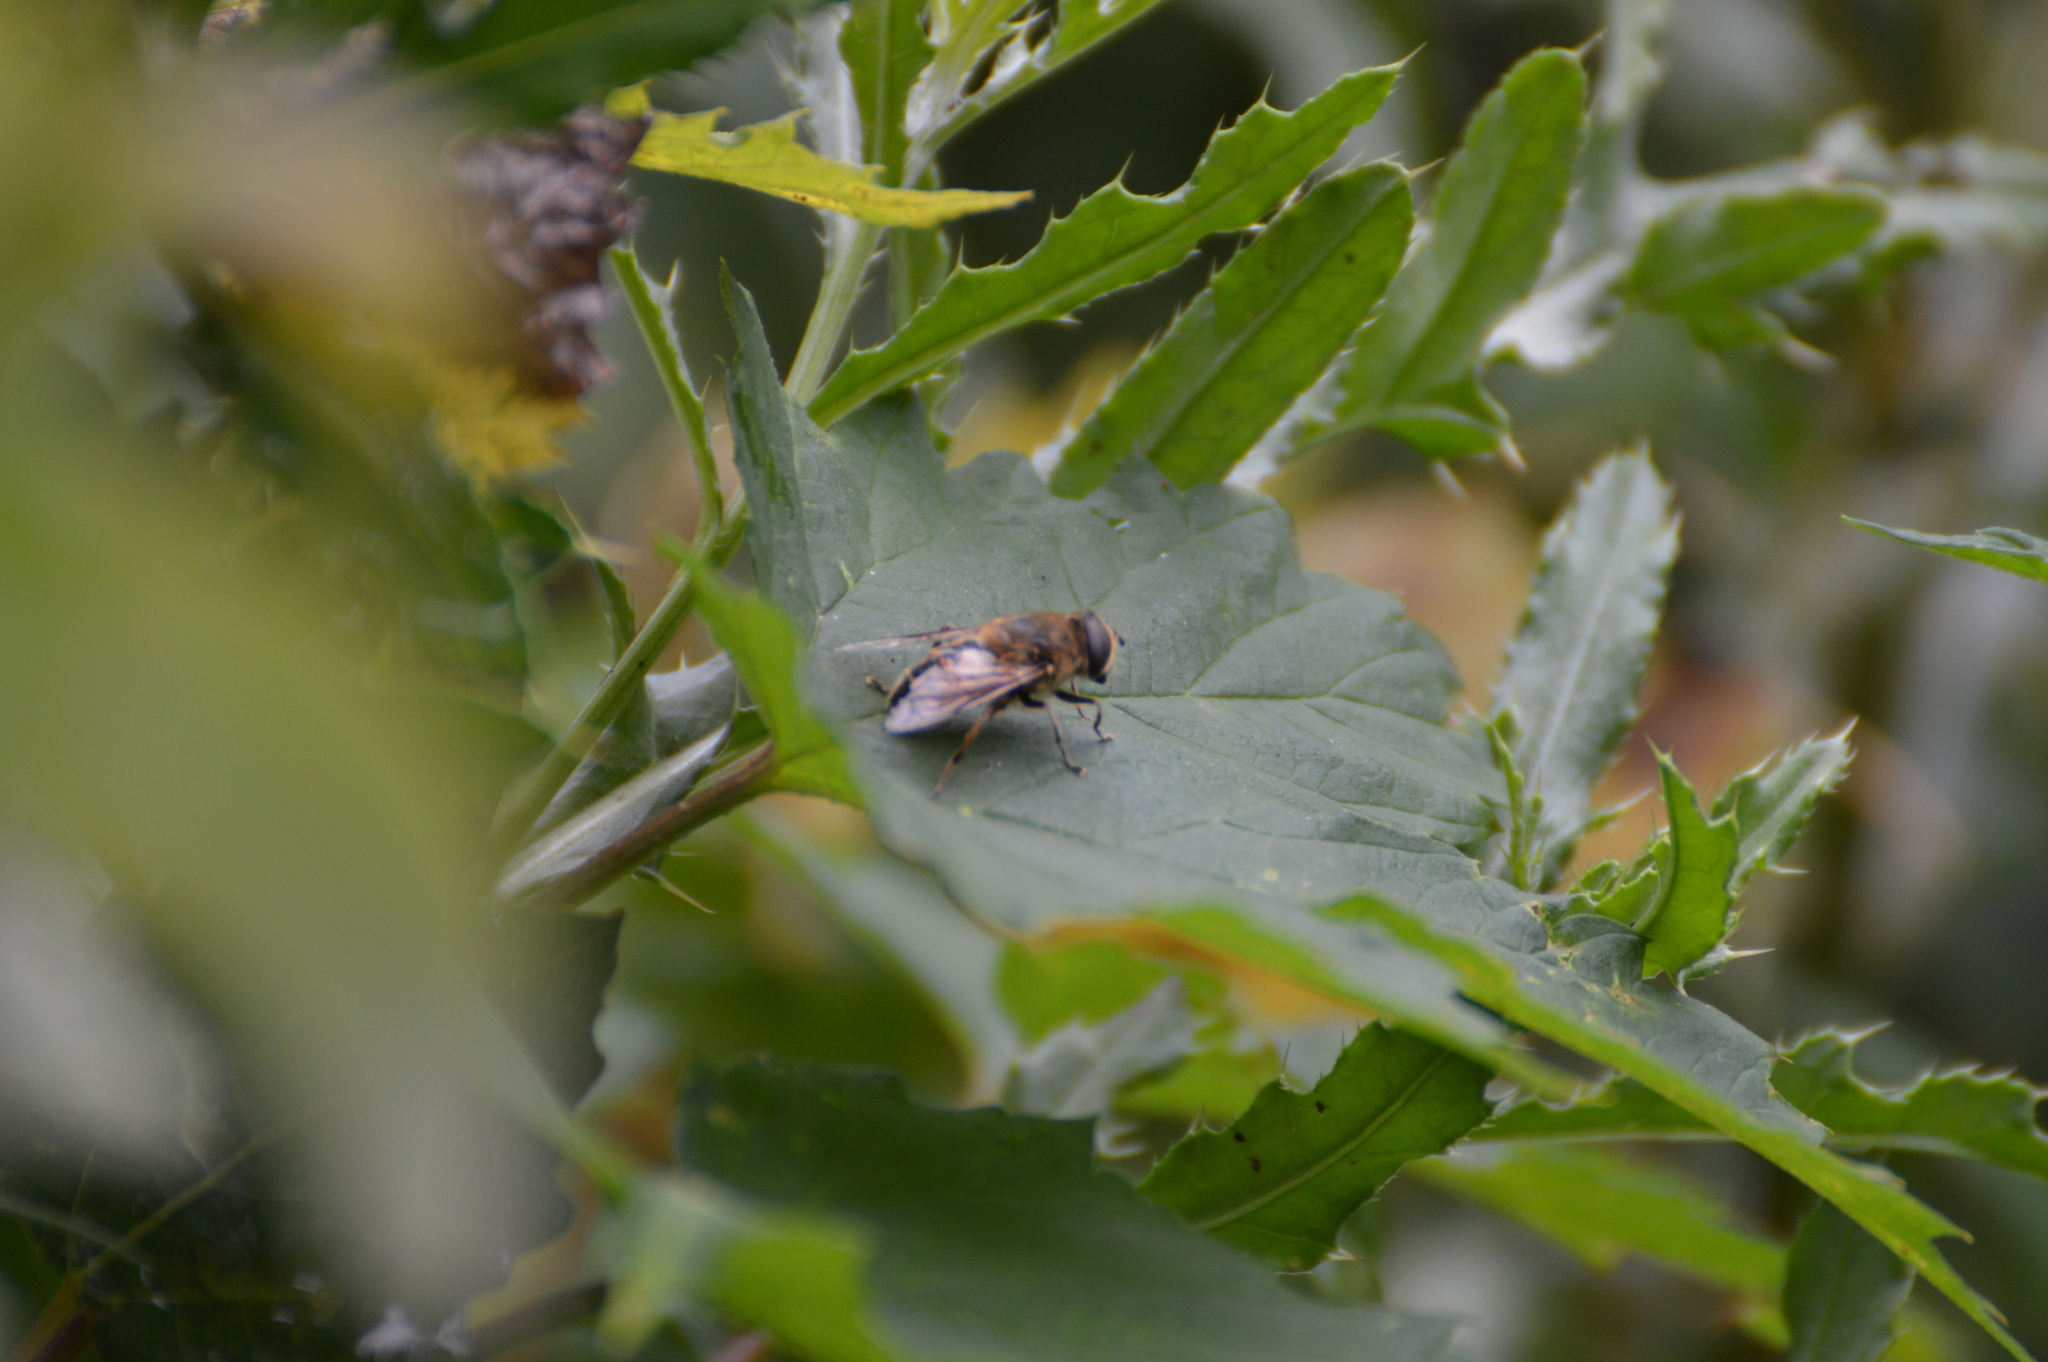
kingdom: Animalia
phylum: Arthropoda
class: Insecta
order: Diptera
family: Syrphidae
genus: Eristalis
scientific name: Eristalis tenax
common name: Drone fly
